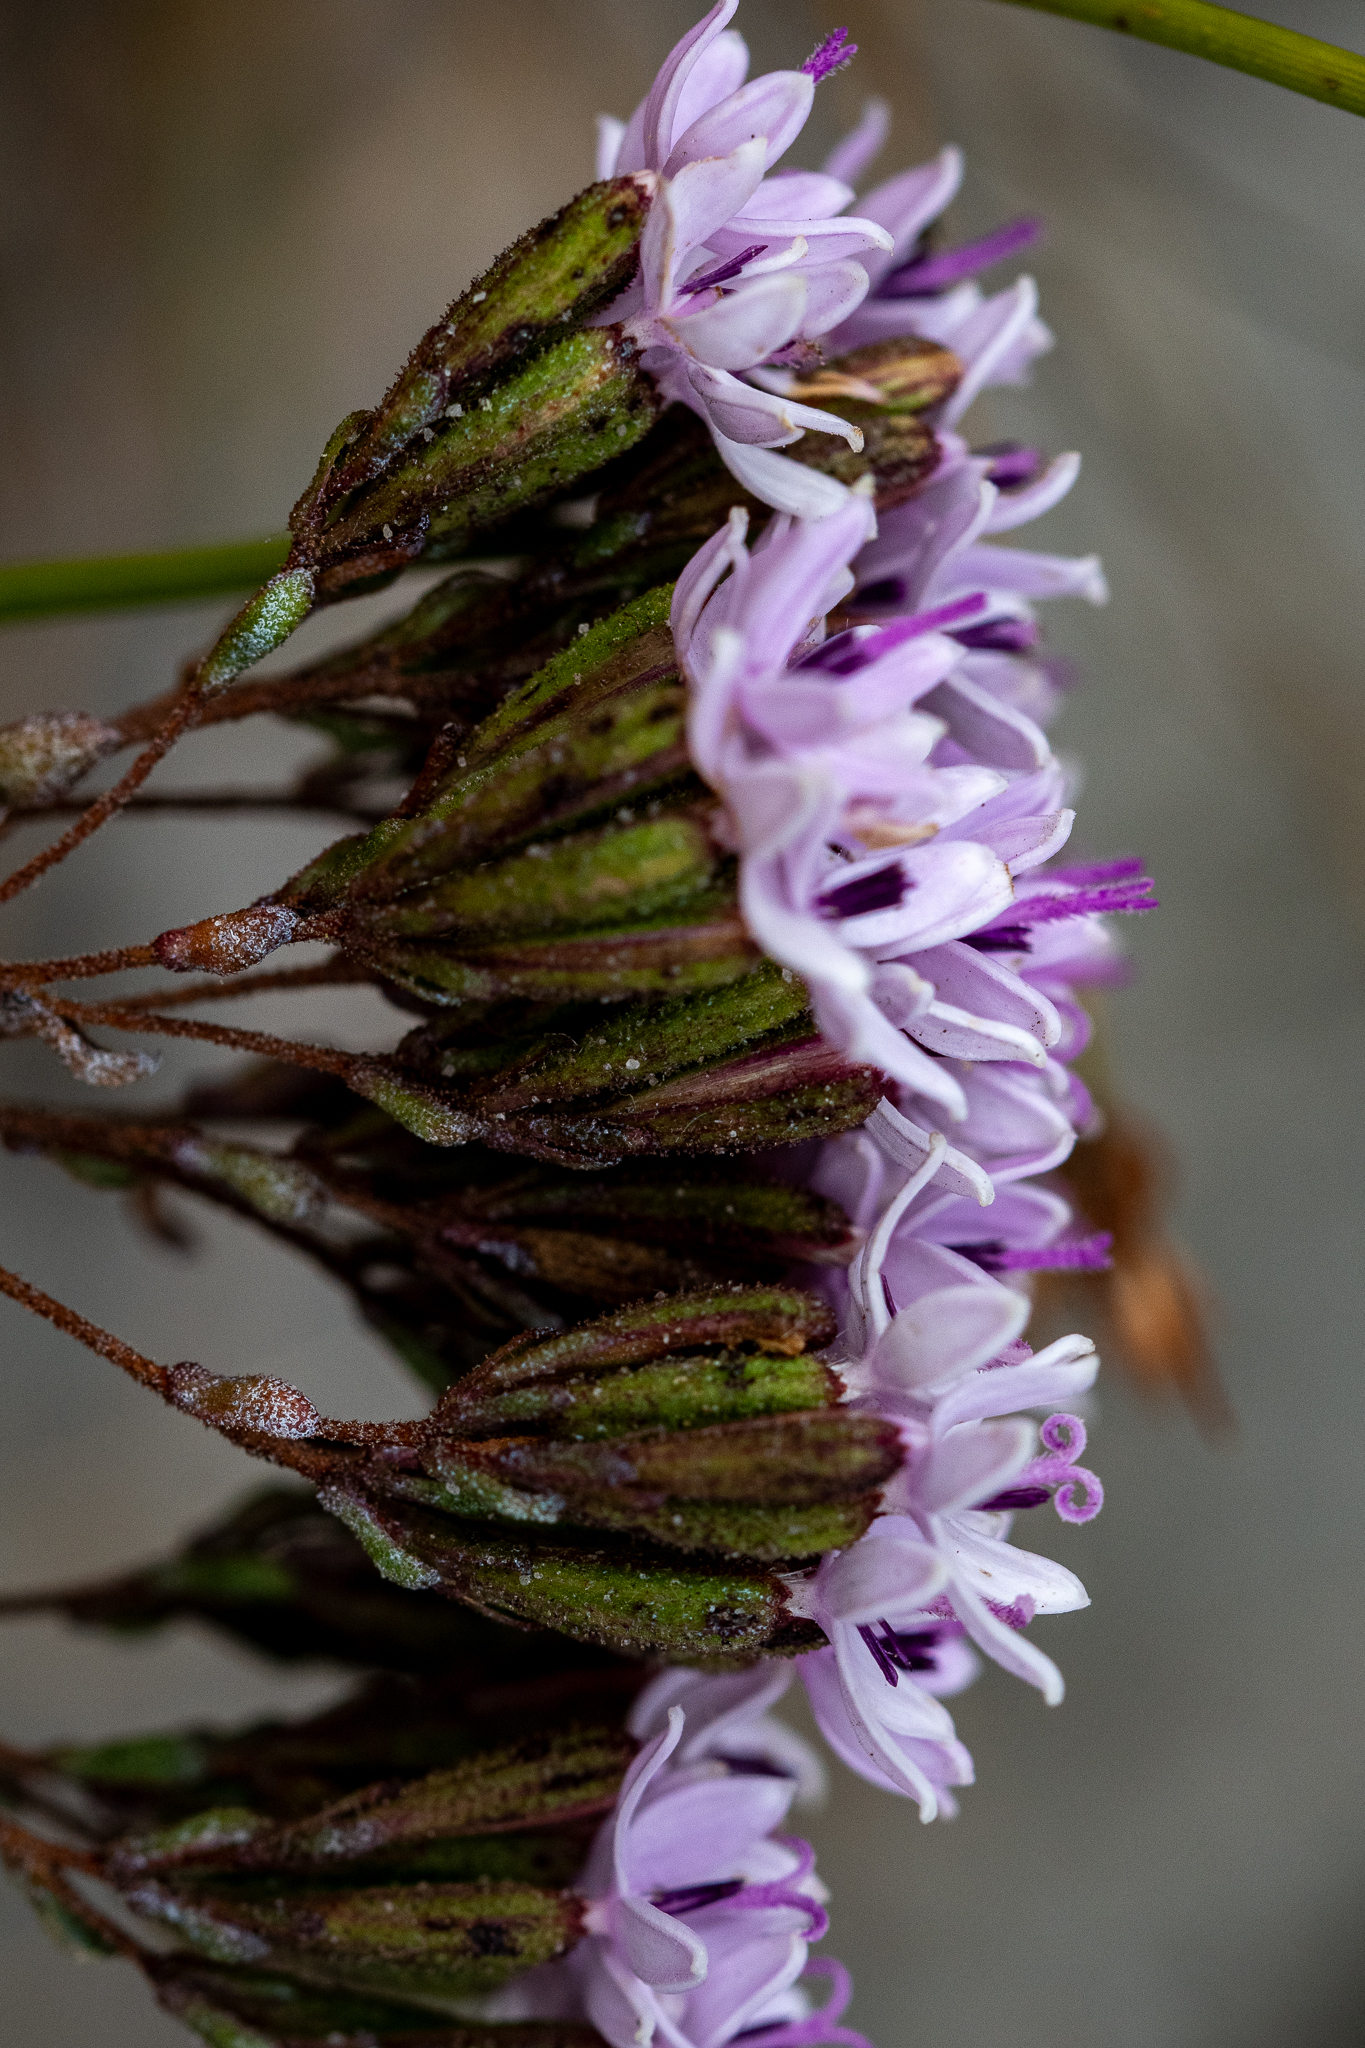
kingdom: Plantae
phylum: Tracheophyta
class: Magnoliopsida
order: Asterales
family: Asteraceae
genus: Corymbium
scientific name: Corymbium africanum
